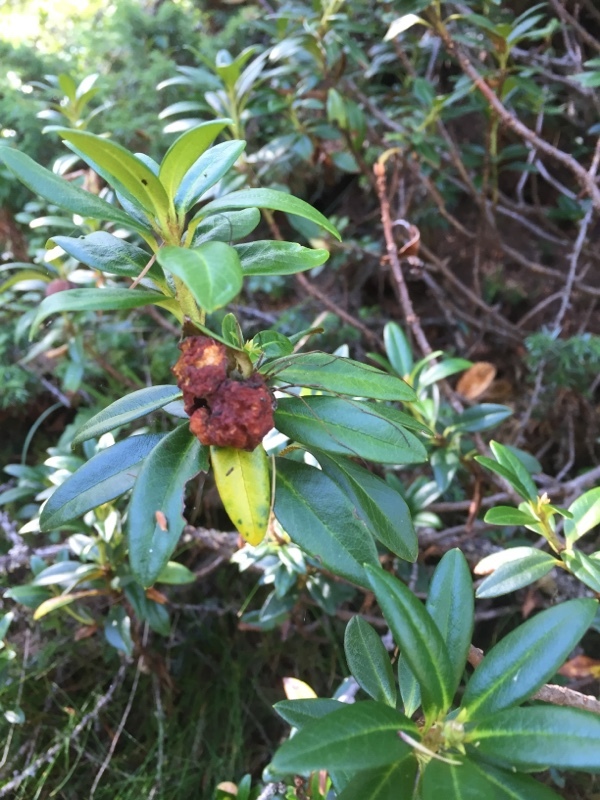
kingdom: Plantae
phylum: Tracheophyta
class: Magnoliopsida
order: Ericales
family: Ericaceae
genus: Rhododendron
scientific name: Rhododendron ferrugineum
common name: Alpenrose
